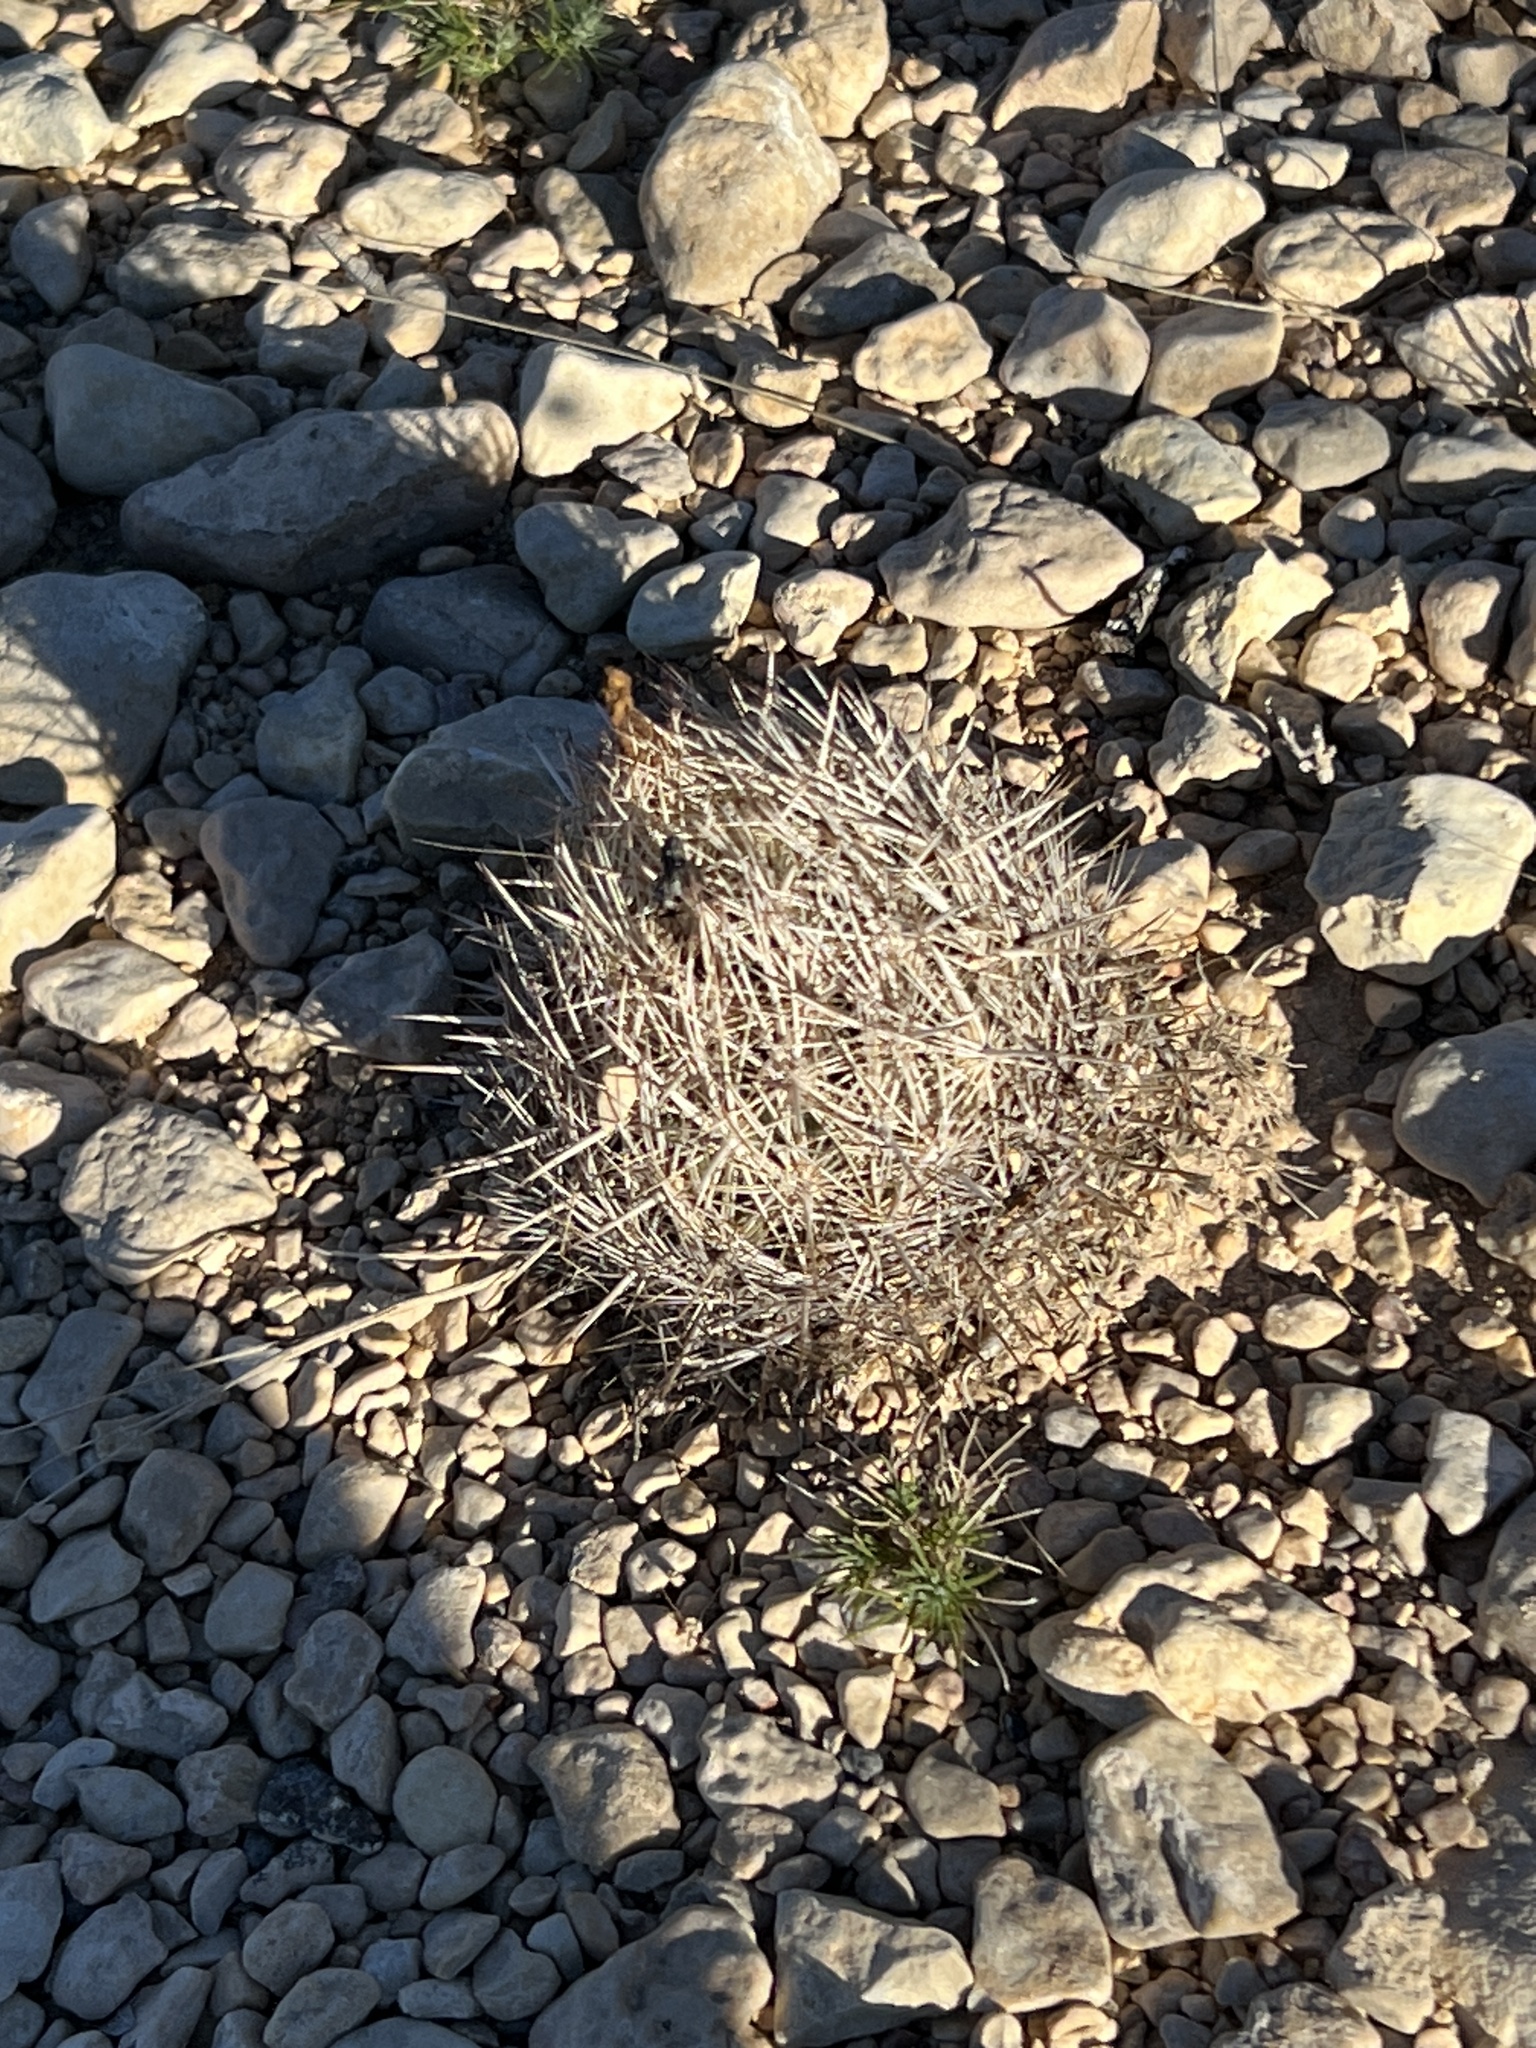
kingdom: Plantae
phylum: Tracheophyta
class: Magnoliopsida
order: Caryophyllales
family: Cactaceae
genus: Coryphantha
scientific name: Coryphantha echinus
